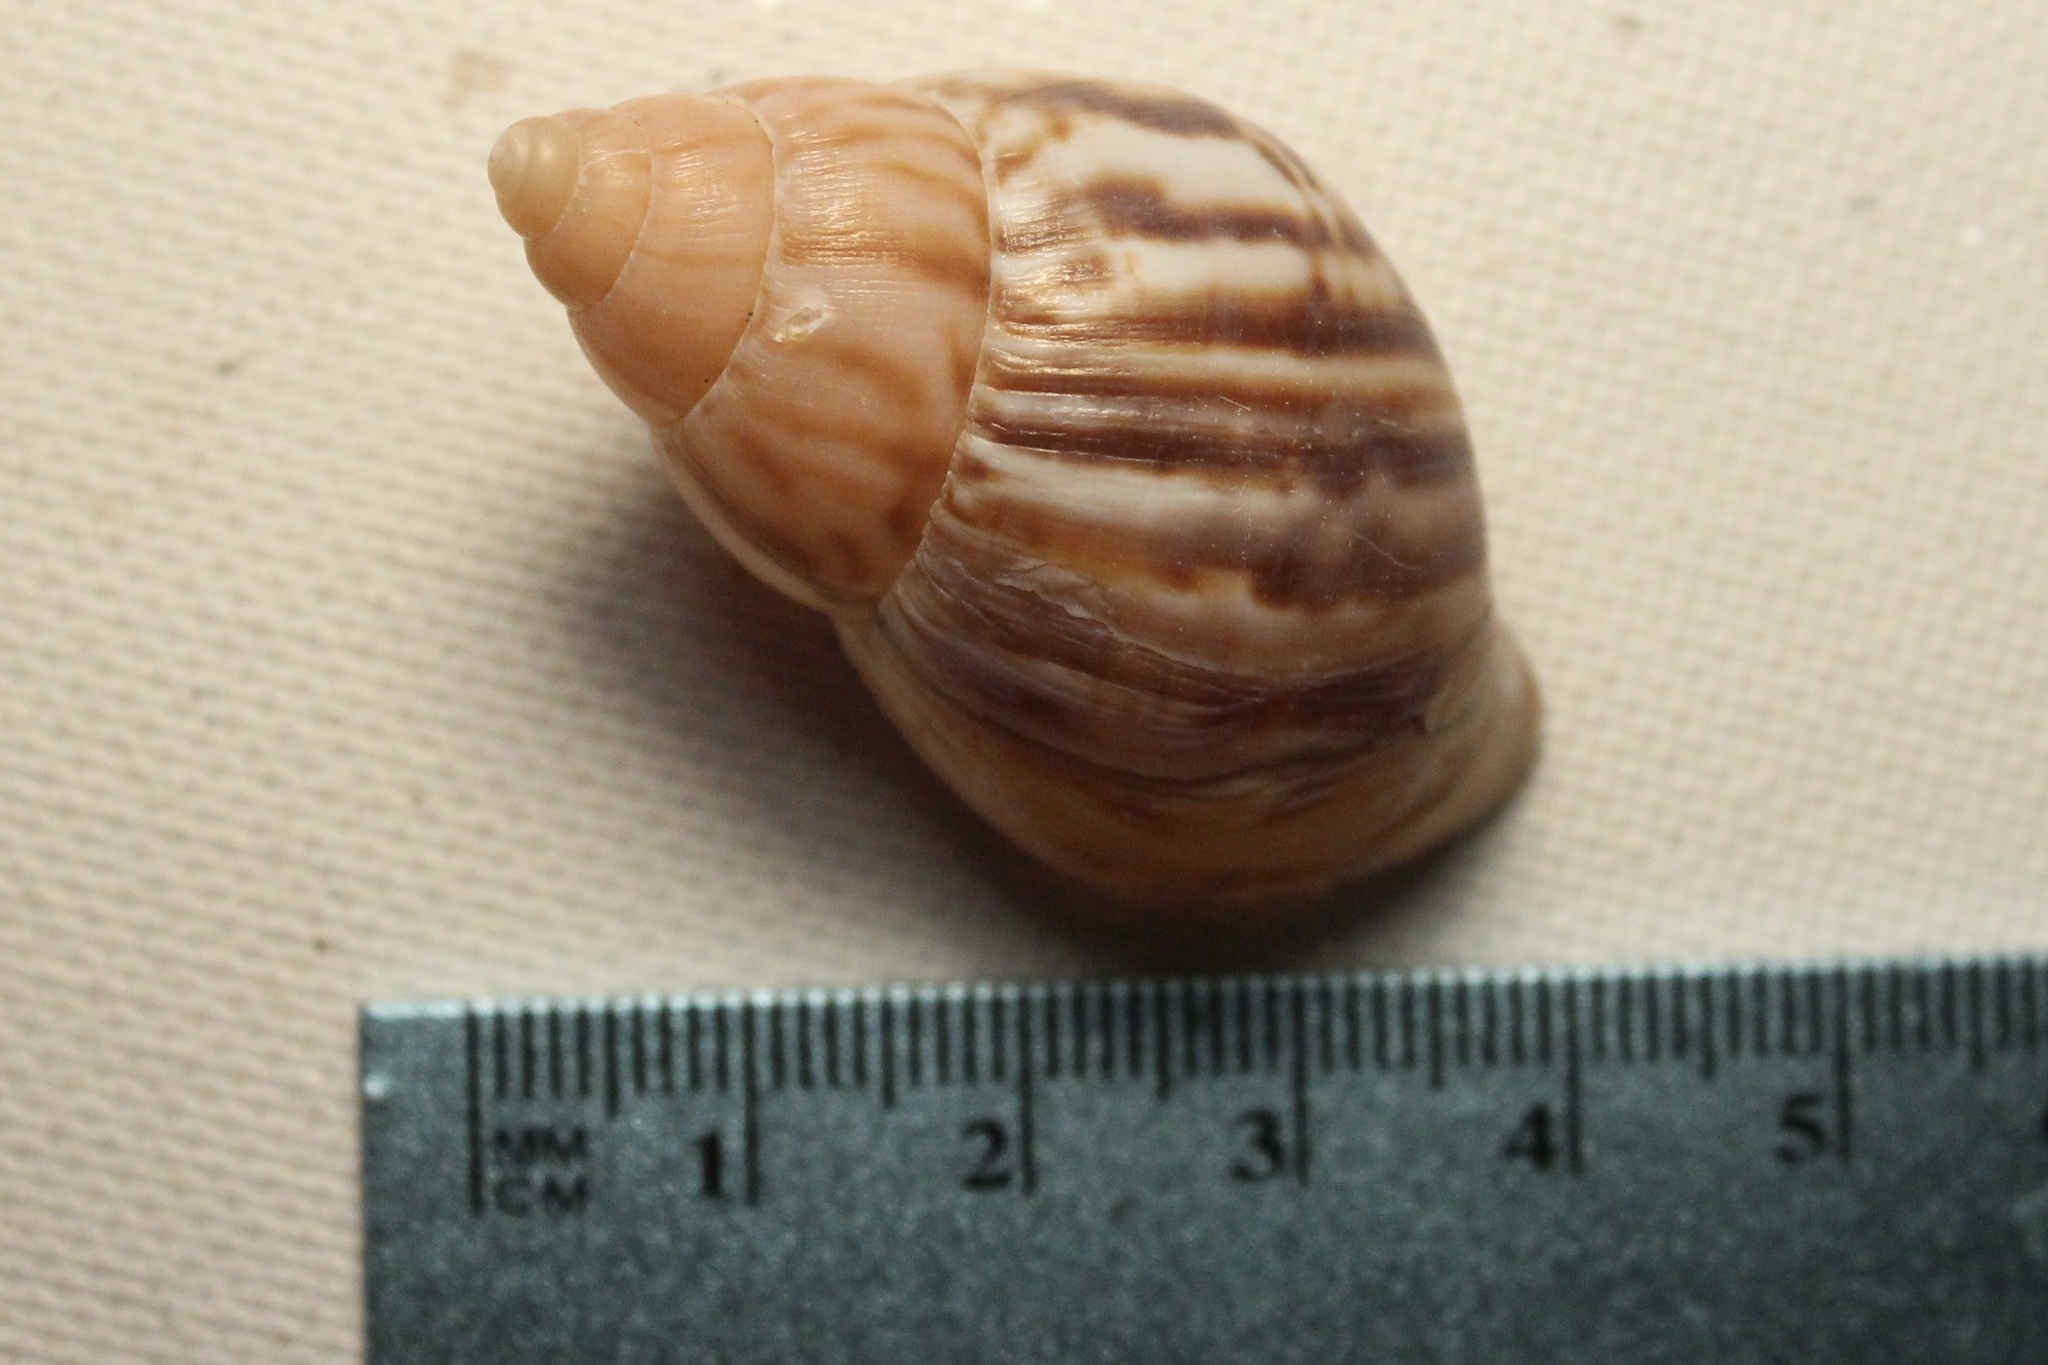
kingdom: Animalia
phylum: Mollusca
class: Gastropoda
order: Stylommatophora
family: Achatinidae
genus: Lissachatina
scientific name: Lissachatina fulica
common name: Giant african snail
